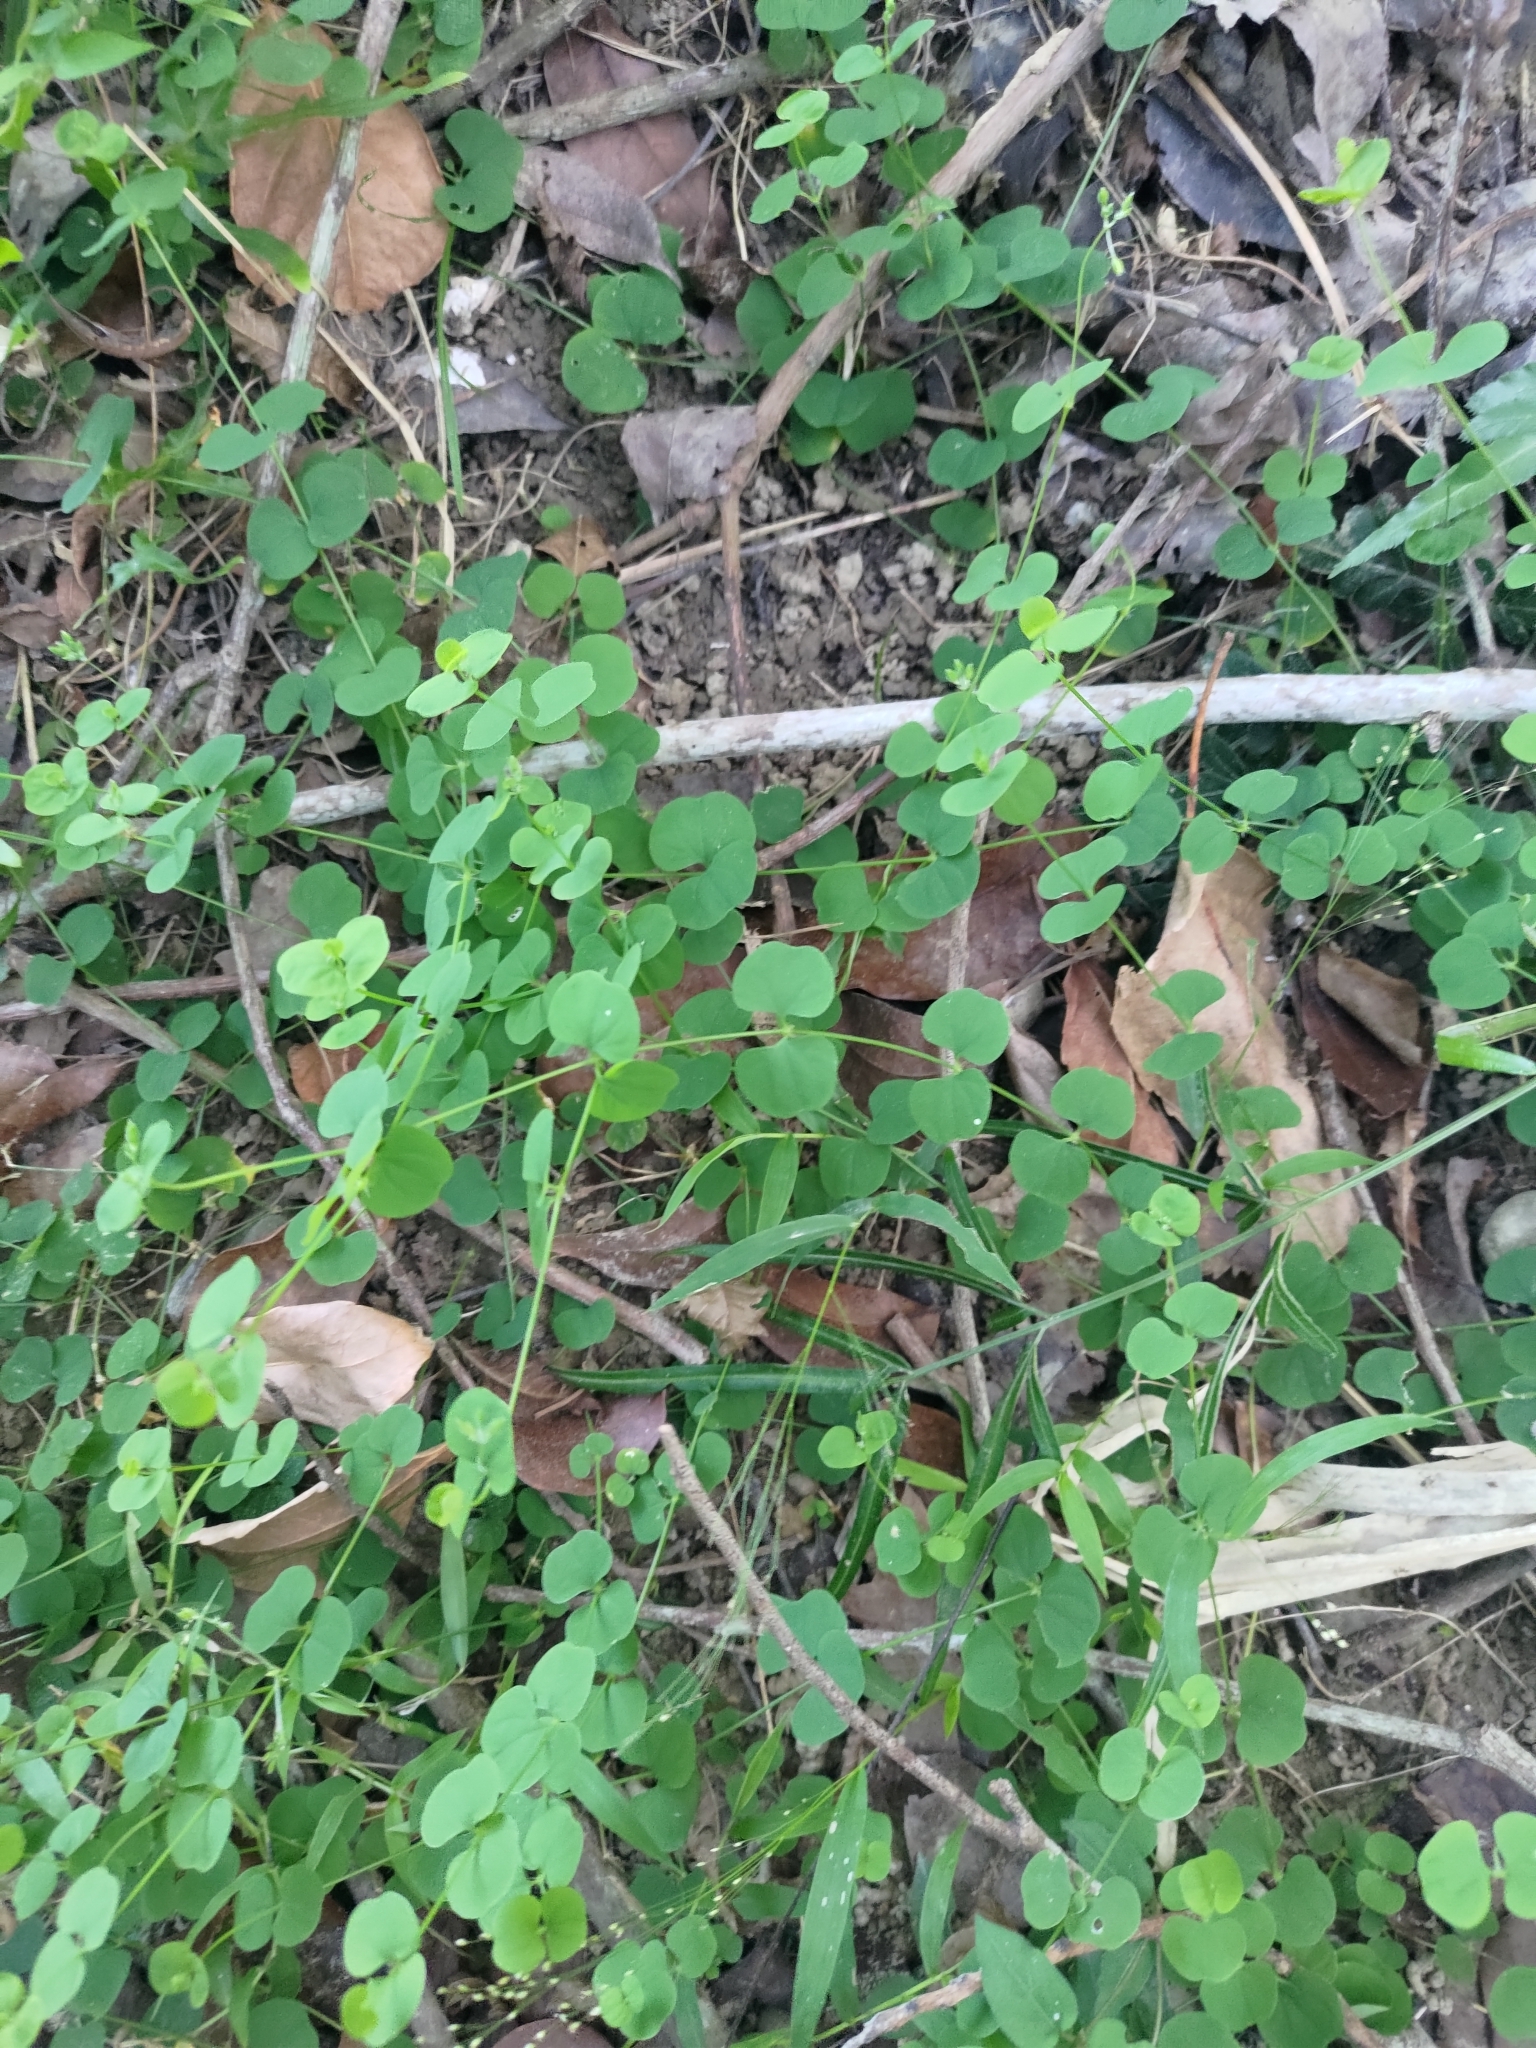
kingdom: Plantae
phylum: Tracheophyta
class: Magnoliopsida
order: Caryophyllales
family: Caryophyllaceae
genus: Drymaria
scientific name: Drymaria cordata
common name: Whitesnow
